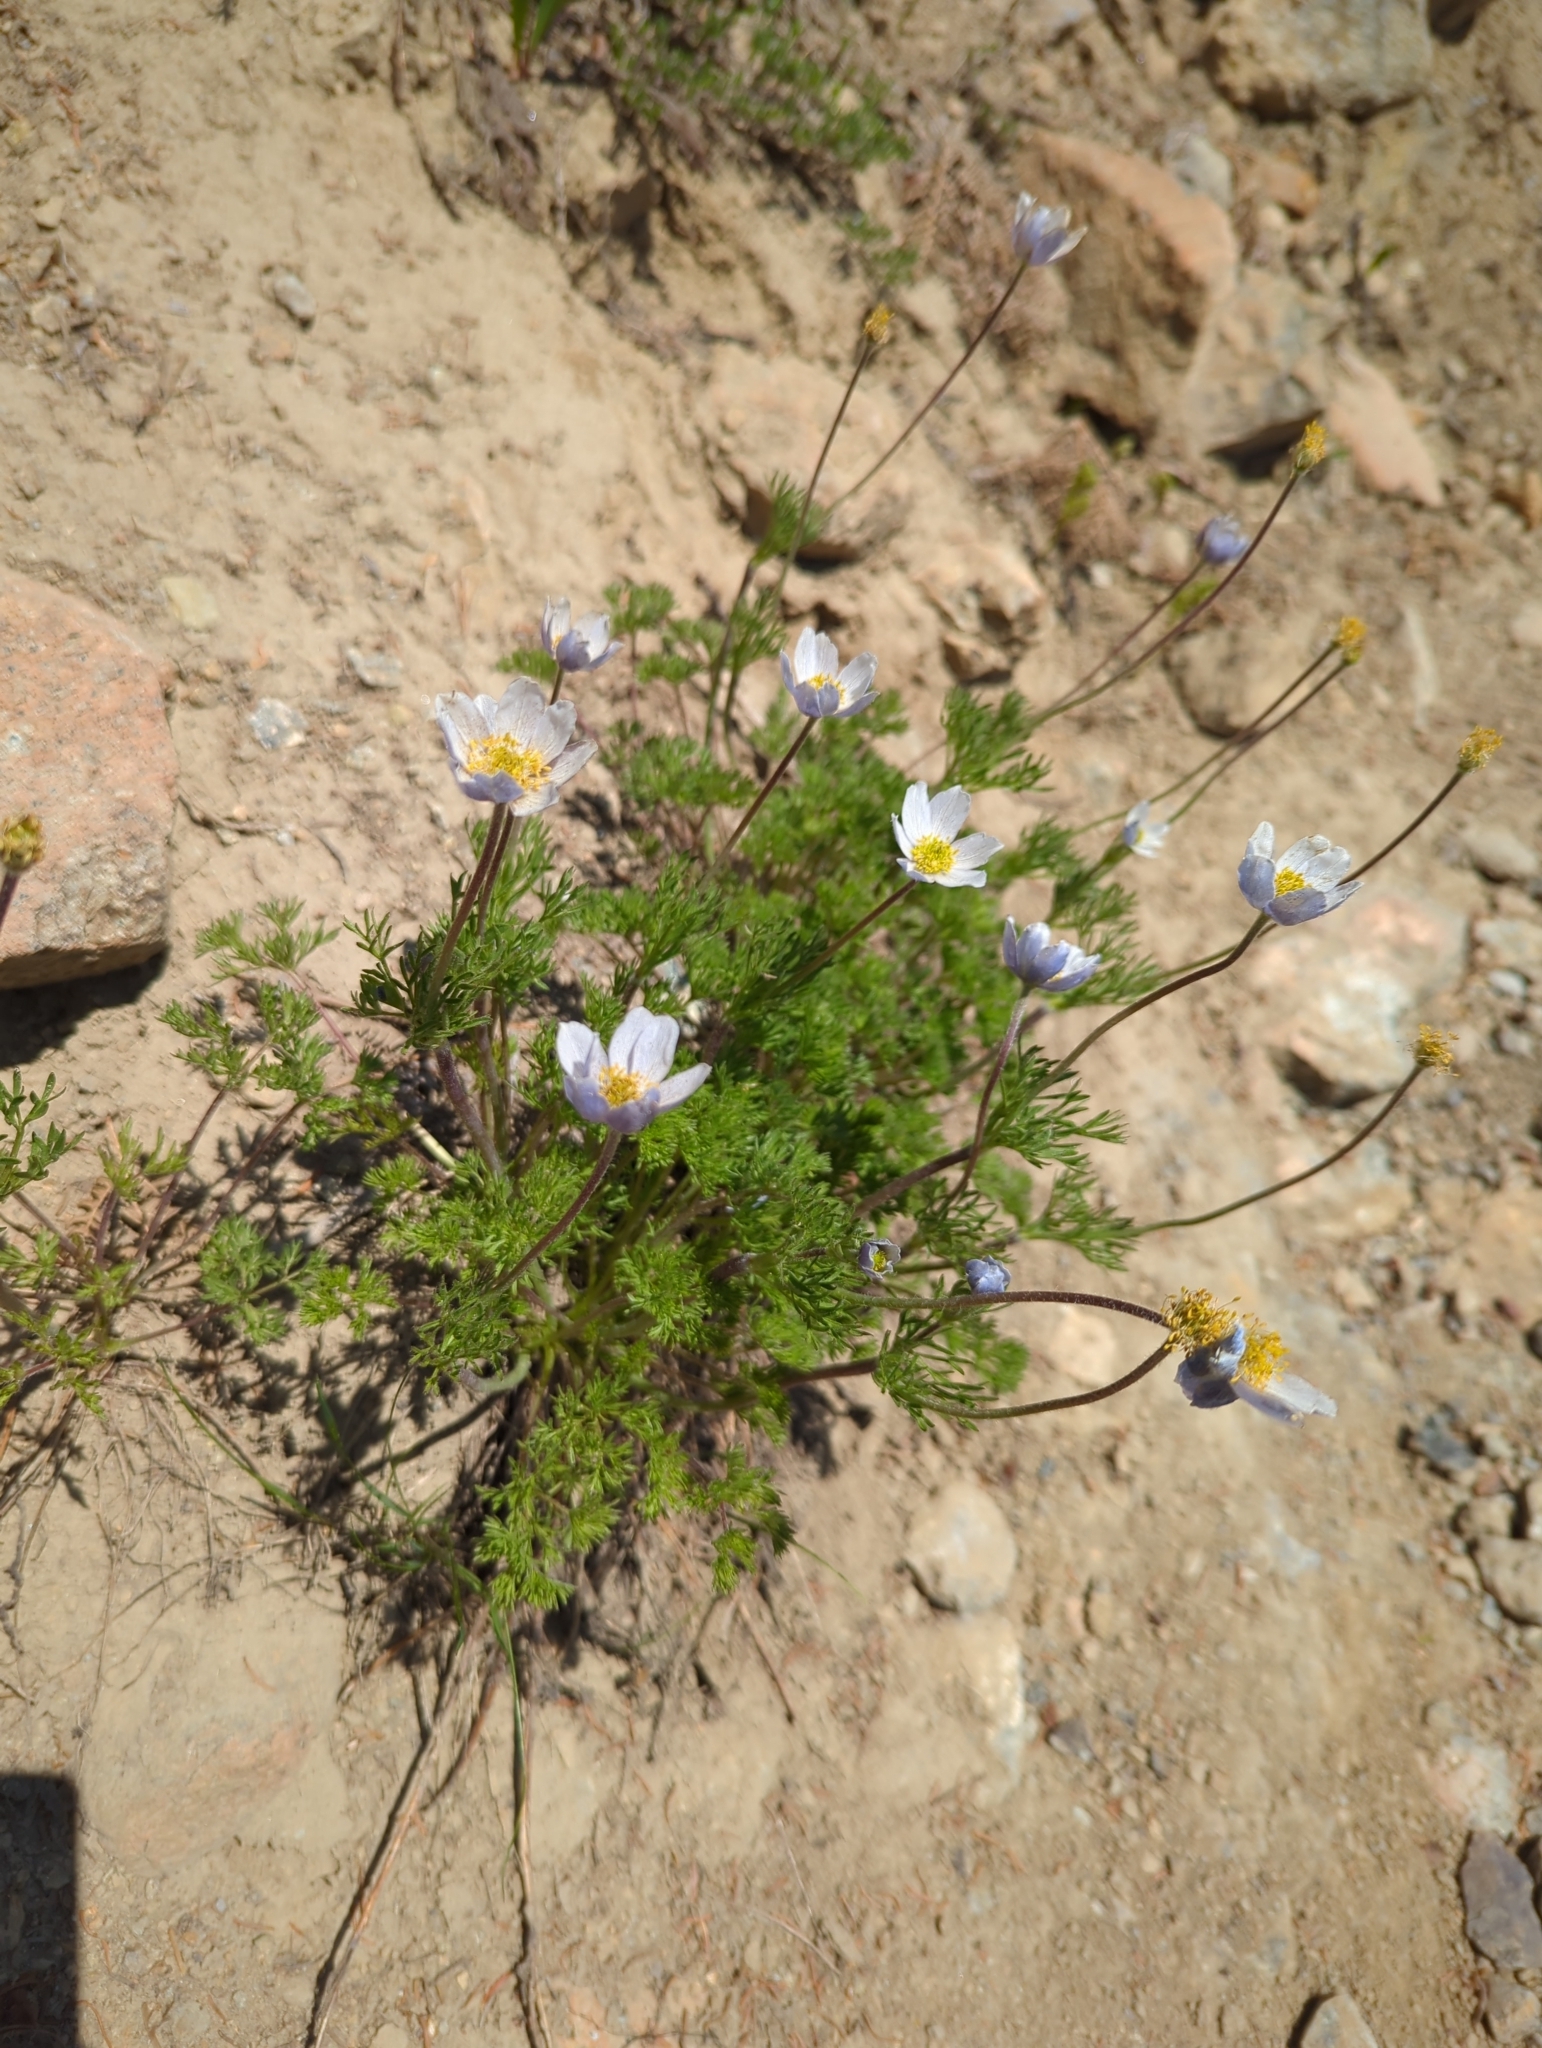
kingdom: Plantae
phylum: Tracheophyta
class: Magnoliopsida
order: Ranunculales
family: Ranunculaceae
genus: Anemone
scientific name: Anemone drummondii
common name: Drummond's anemone
